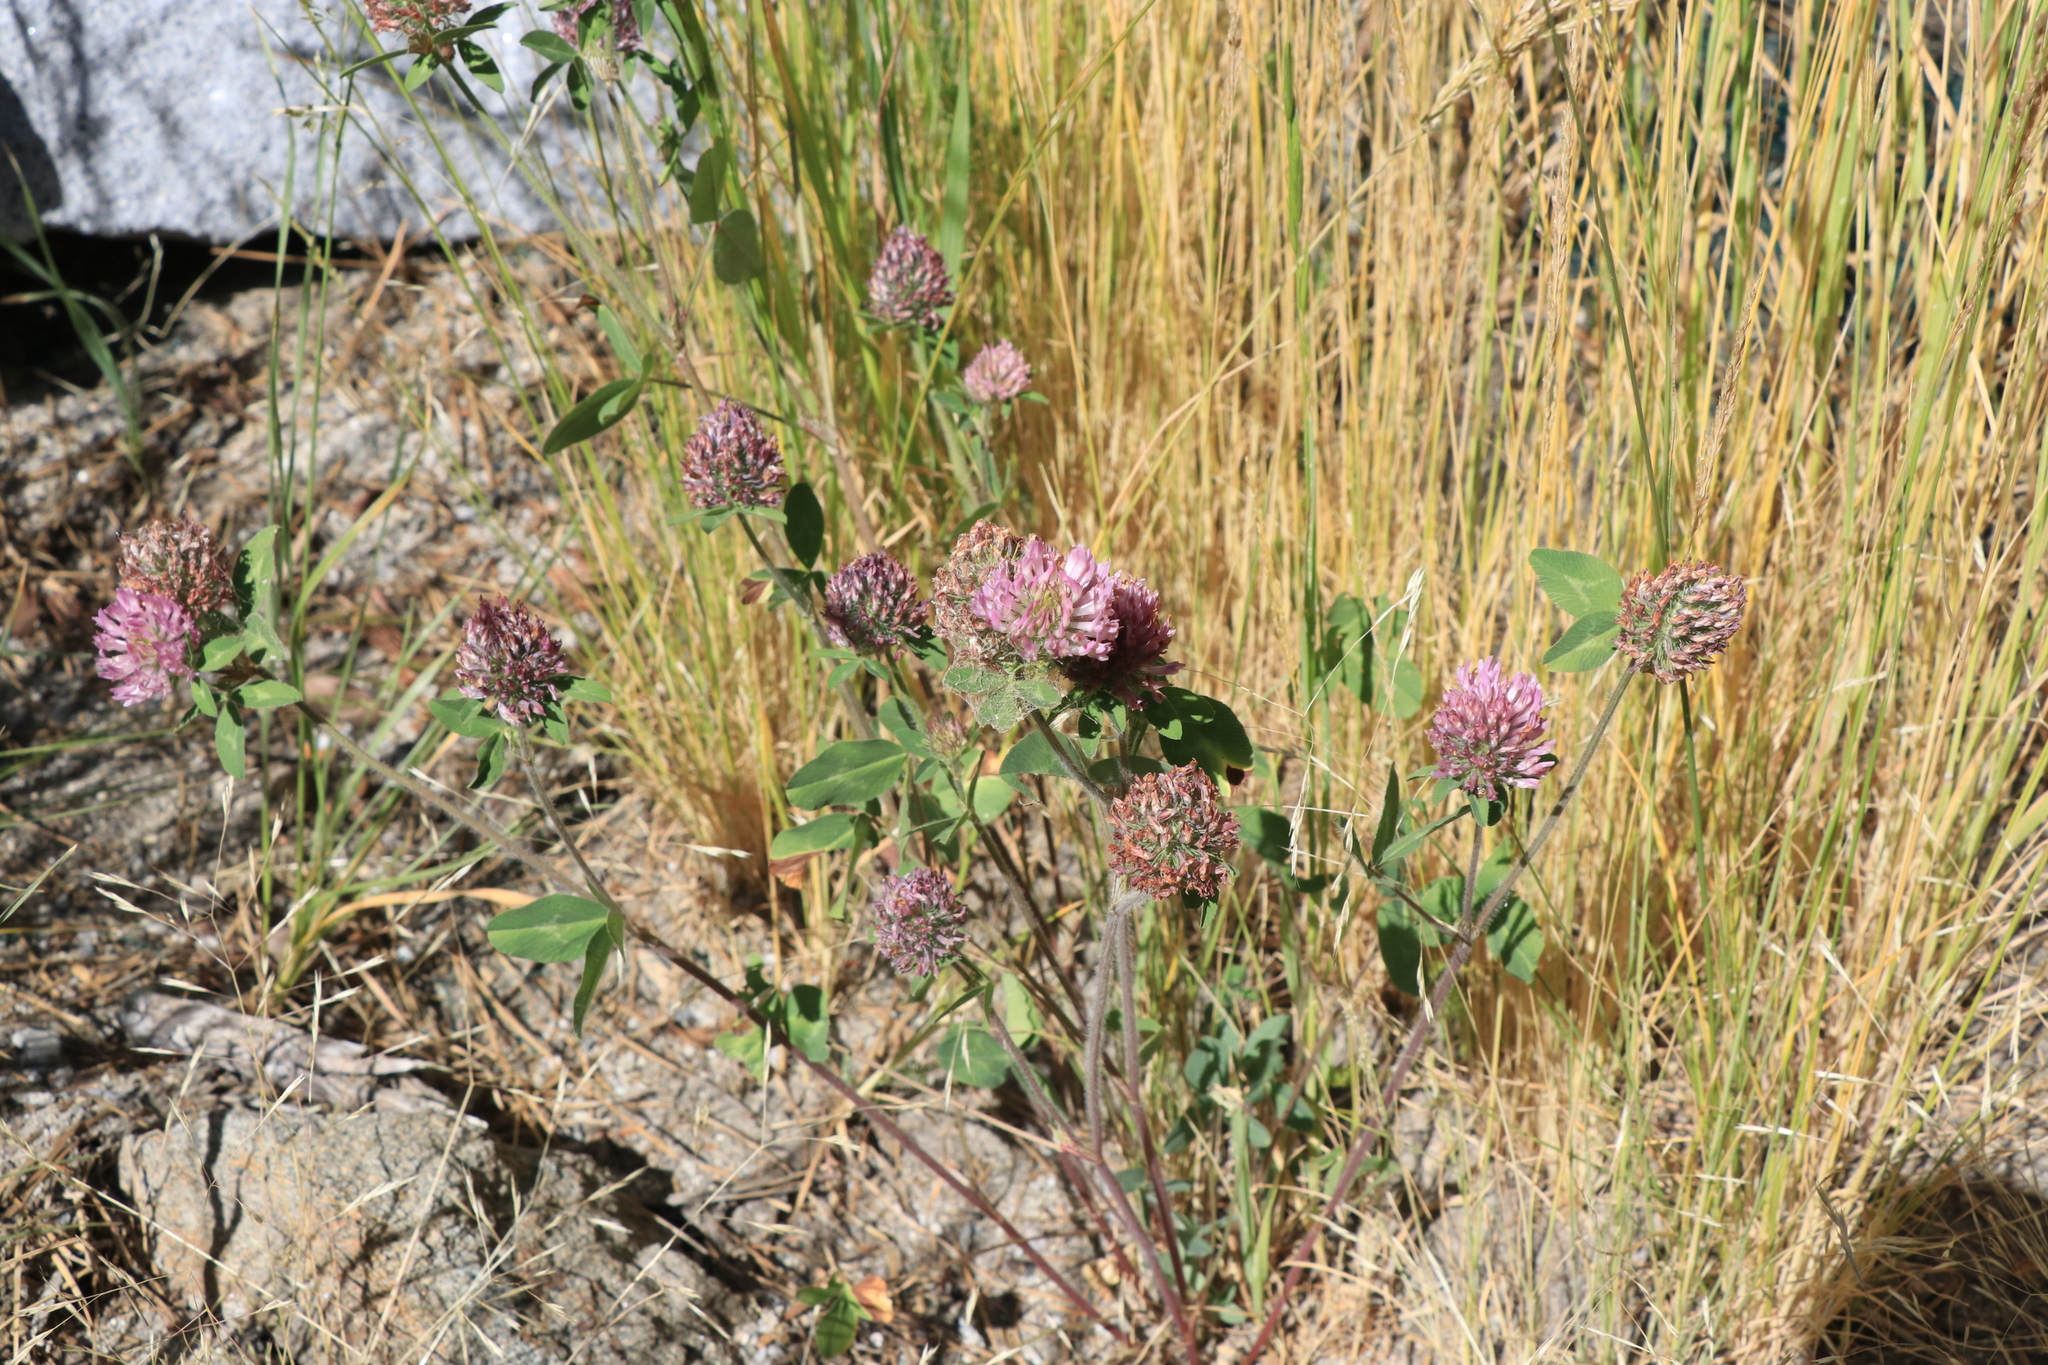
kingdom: Plantae
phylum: Tracheophyta
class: Magnoliopsida
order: Fabales
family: Fabaceae
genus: Trifolium
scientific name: Trifolium pratense
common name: Red clover
